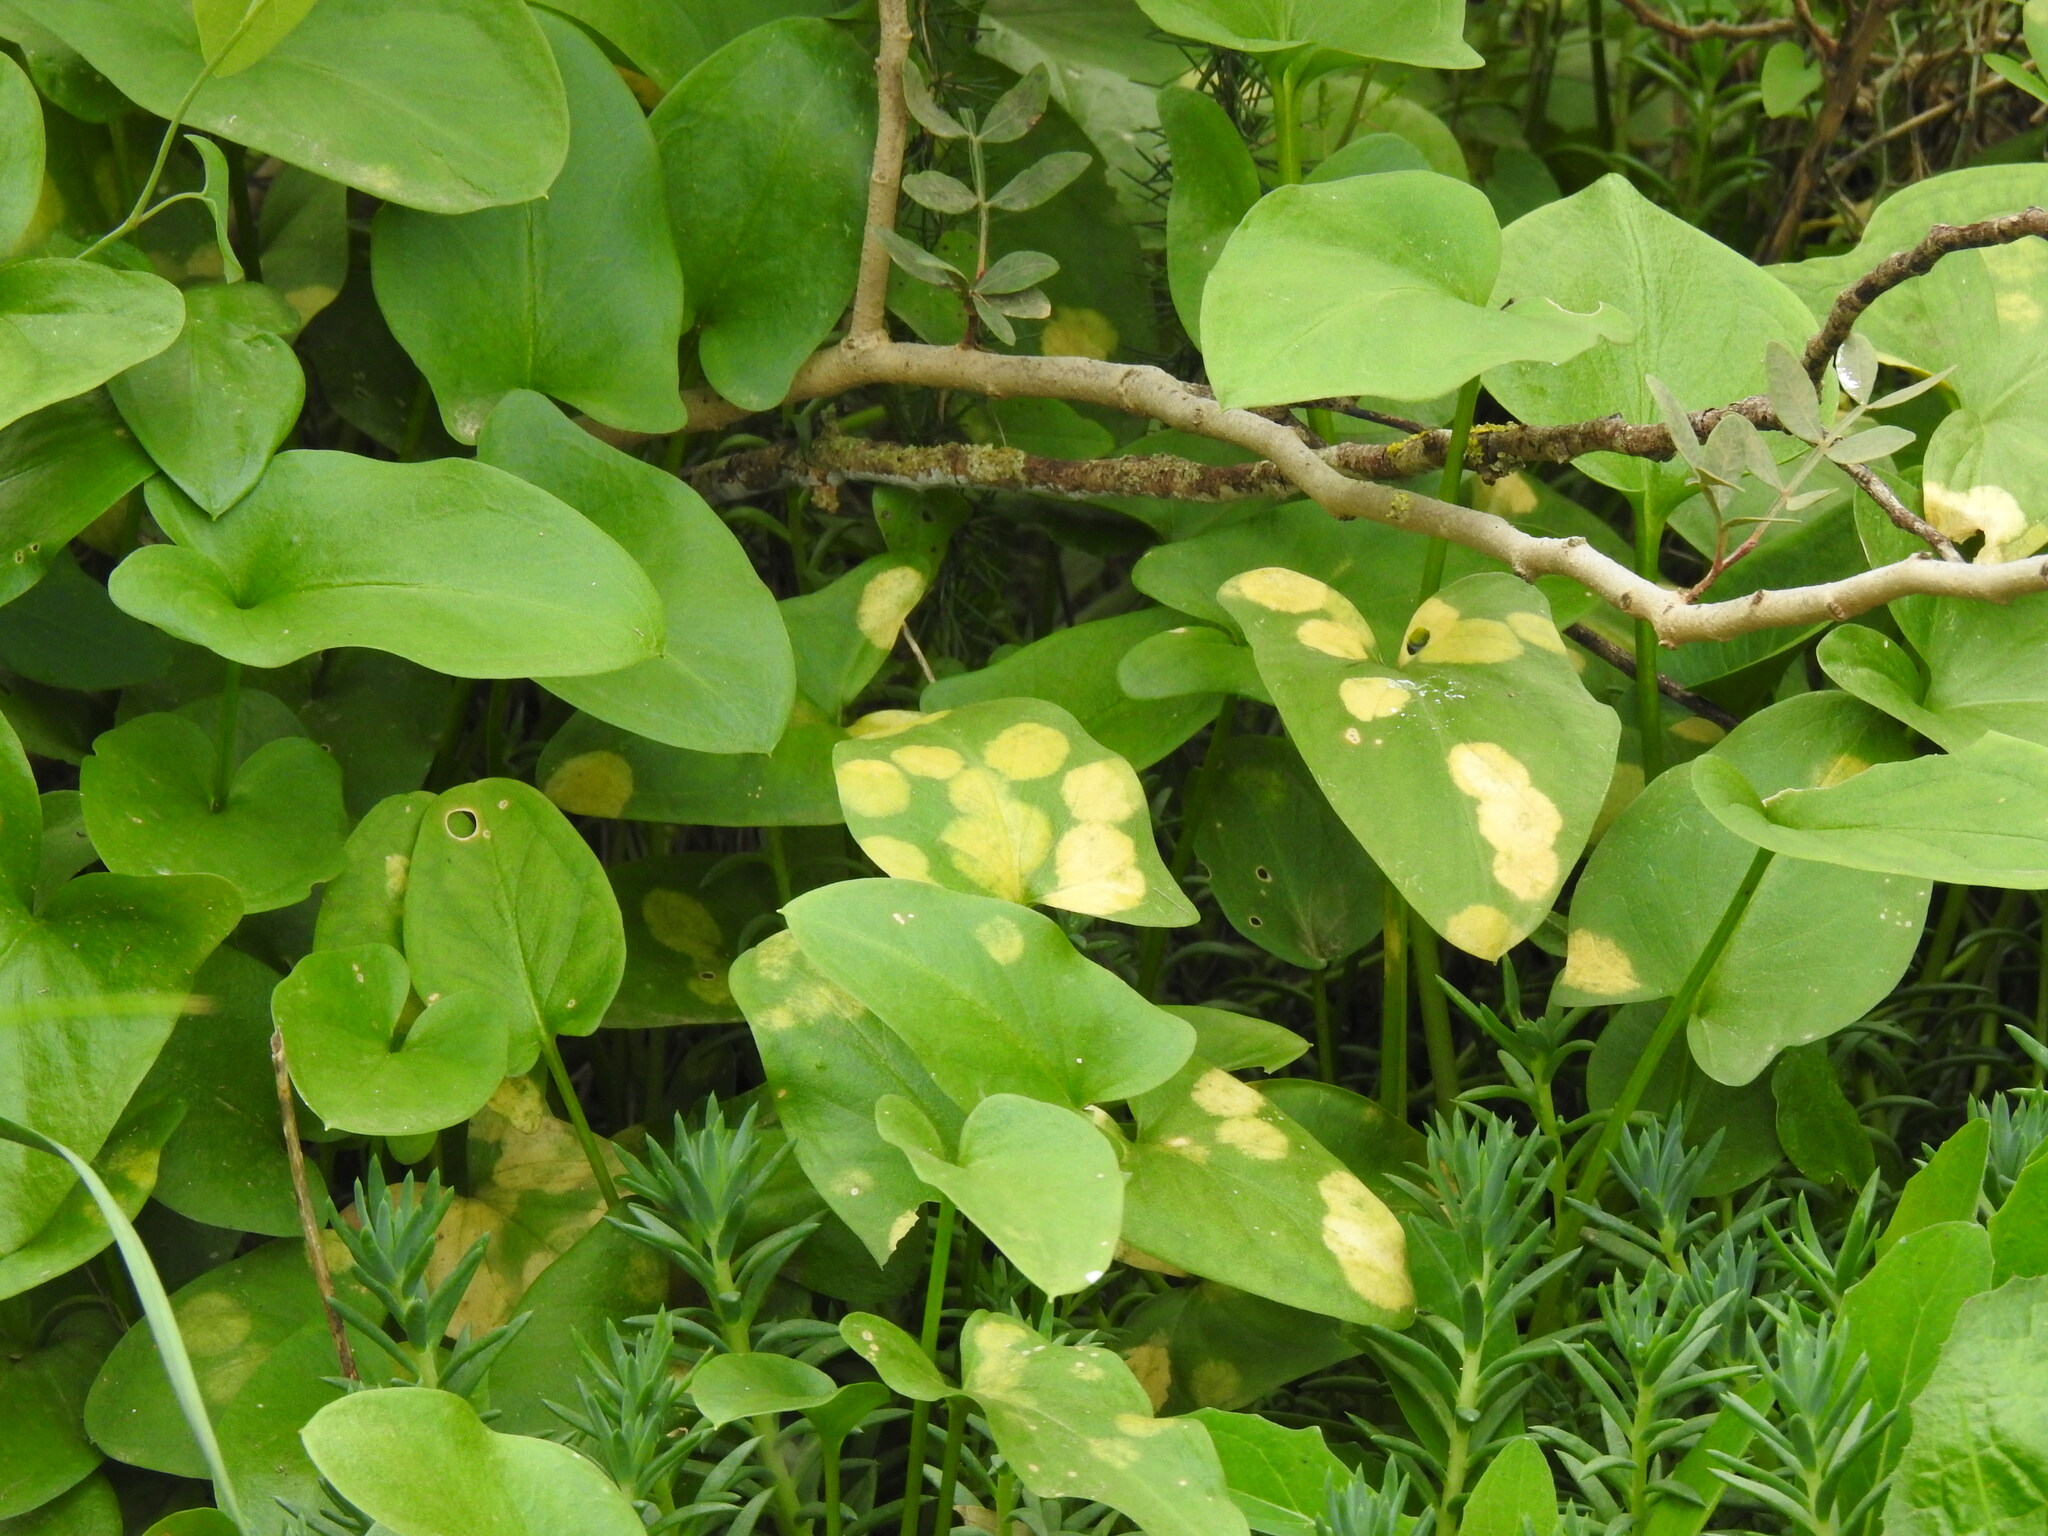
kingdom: Chromista
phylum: Ochrophyta
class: Xanthophyceae
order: Phyllosiphonales
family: Phyllosiphonaceae
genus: Phyllosiphon
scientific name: Phyllosiphon arisari
